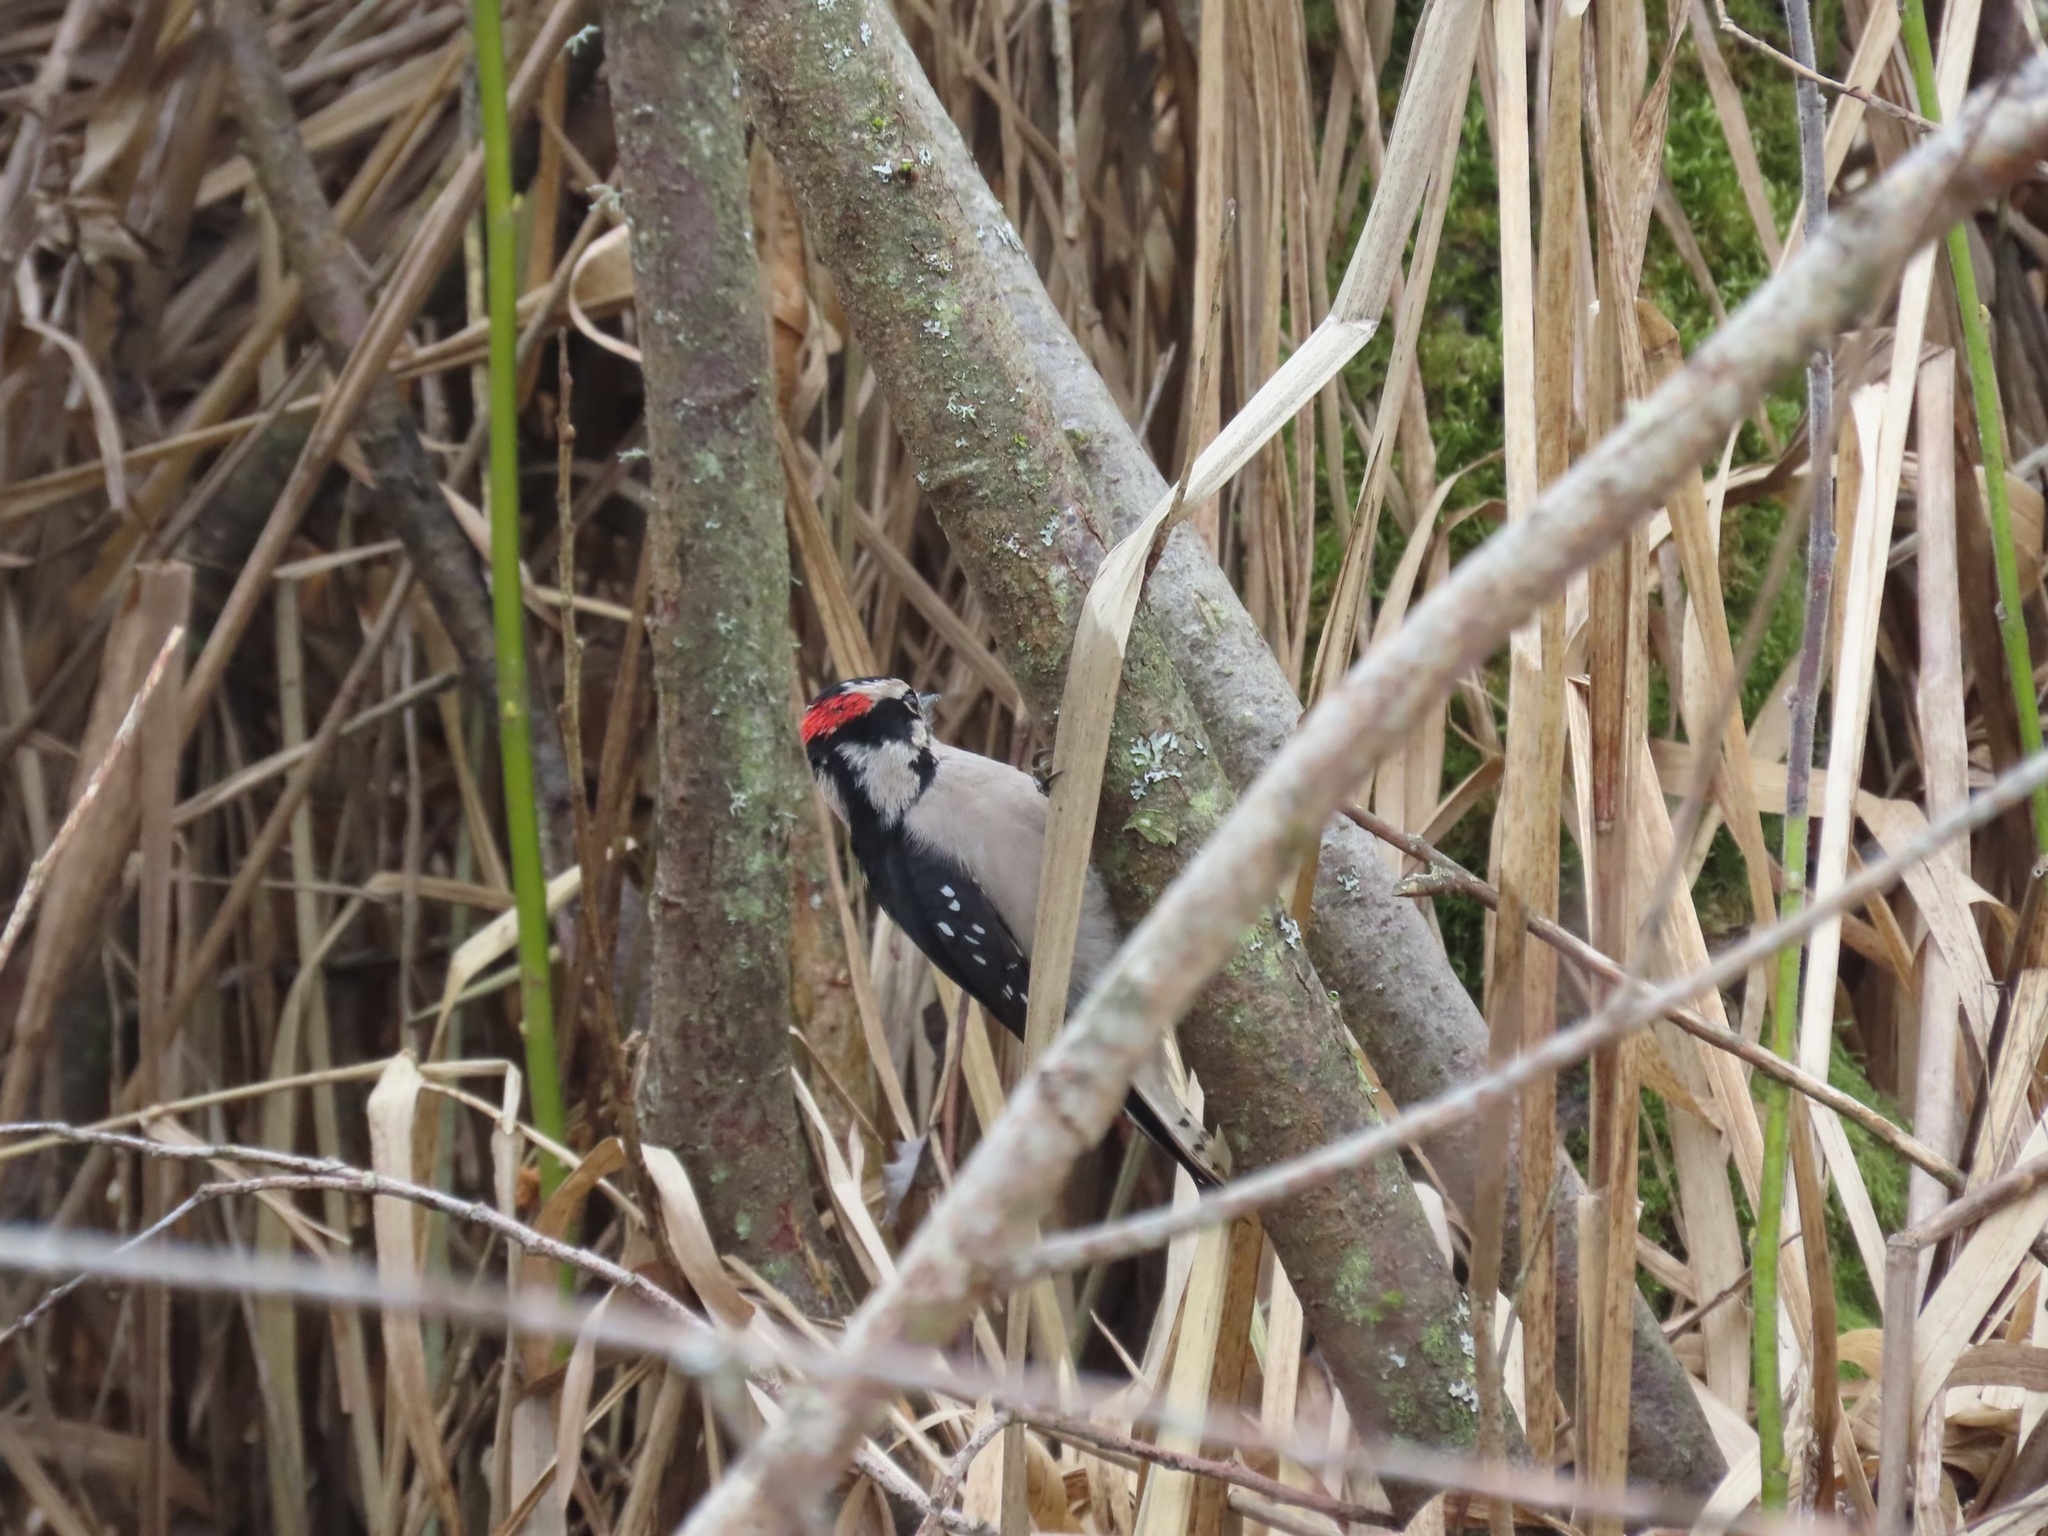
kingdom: Animalia
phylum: Chordata
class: Aves
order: Piciformes
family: Picidae
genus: Dryobates
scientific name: Dryobates pubescens
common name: Downy woodpecker
